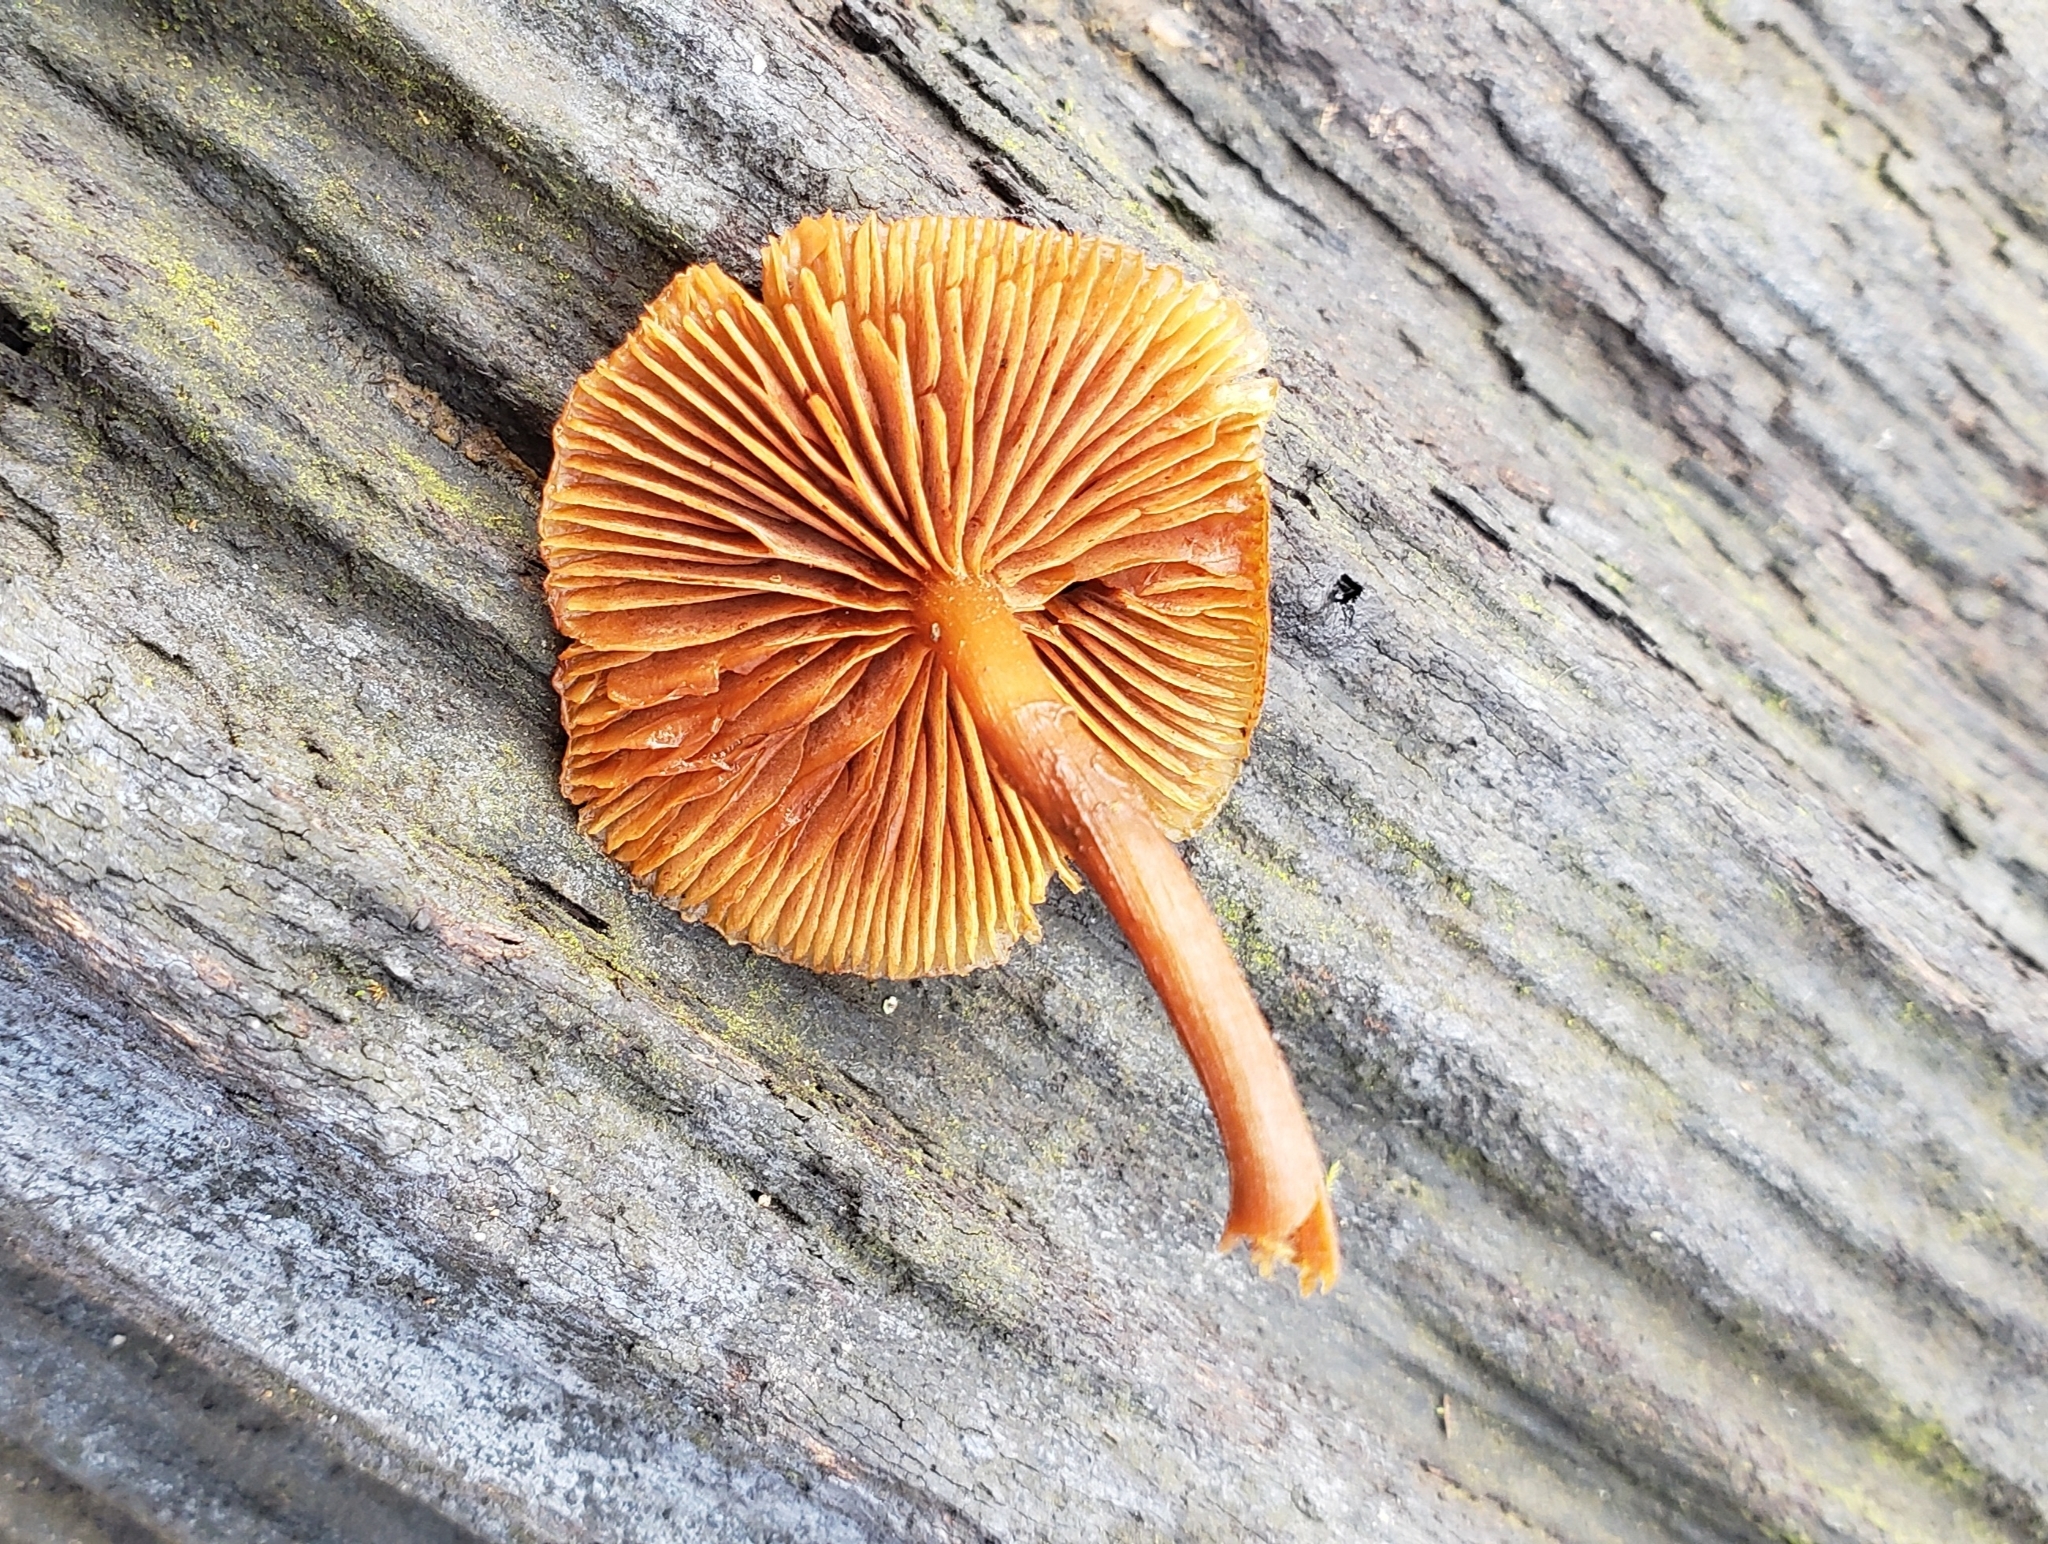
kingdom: Fungi
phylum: Basidiomycota
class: Agaricomycetes
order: Agaricales
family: Hymenogastraceae
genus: Galerina
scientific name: Galerina marginata
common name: Funeral bell
